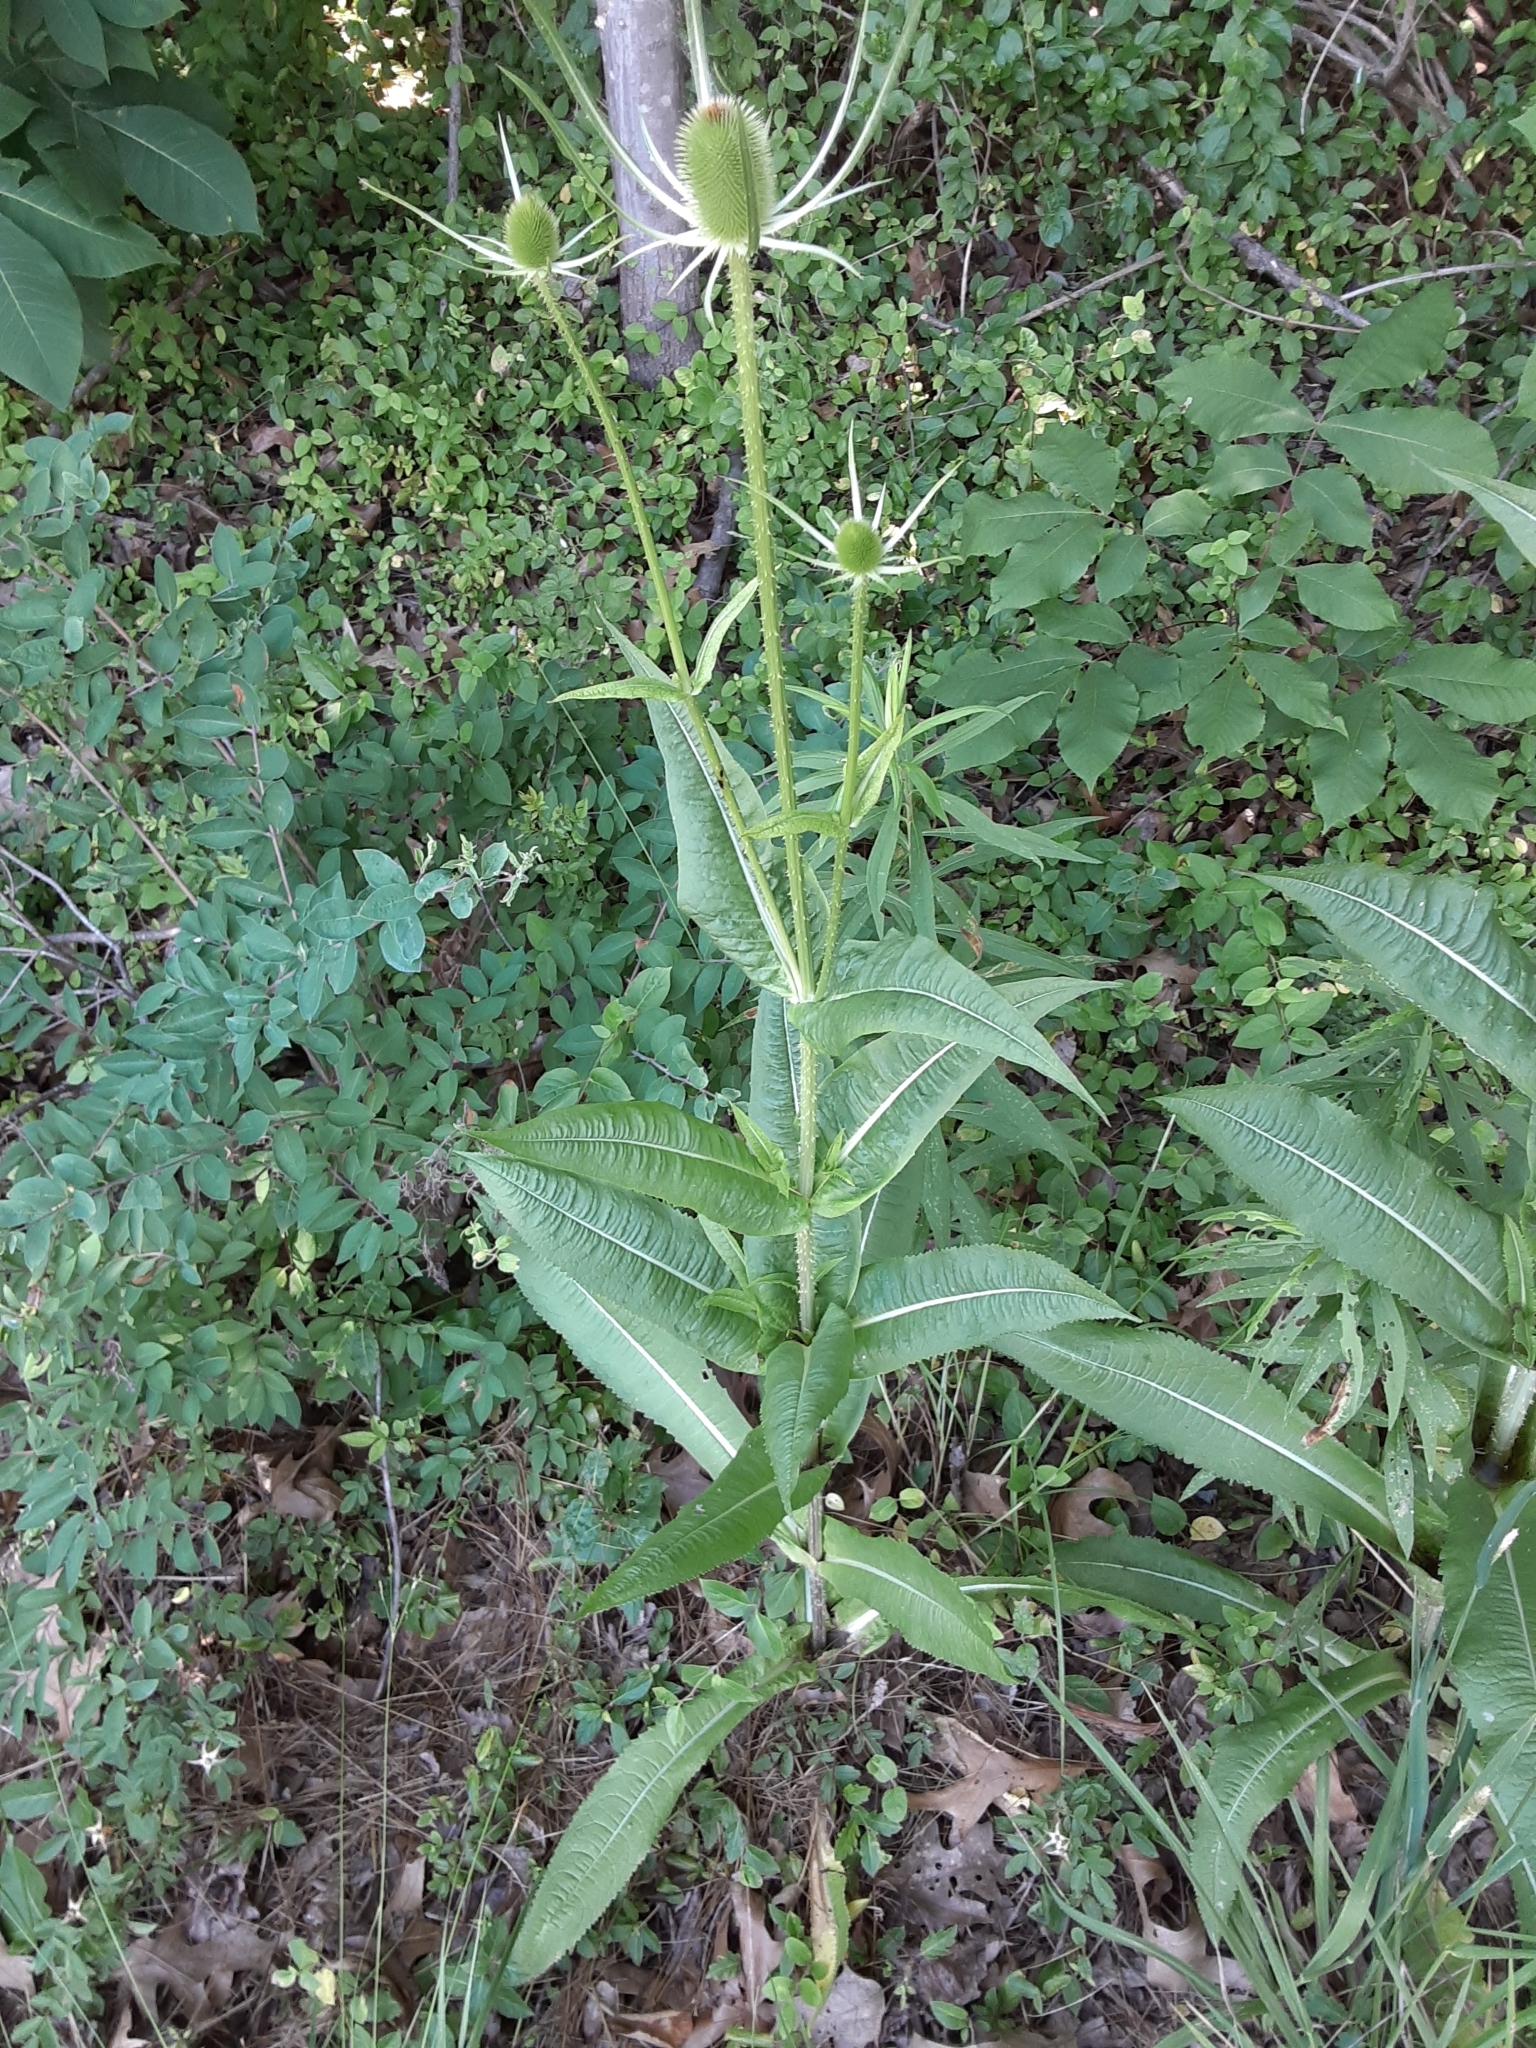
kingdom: Plantae
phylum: Tracheophyta
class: Magnoliopsida
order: Dipsacales
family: Caprifoliaceae
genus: Dipsacus
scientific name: Dipsacus fullonum
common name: Teasel
